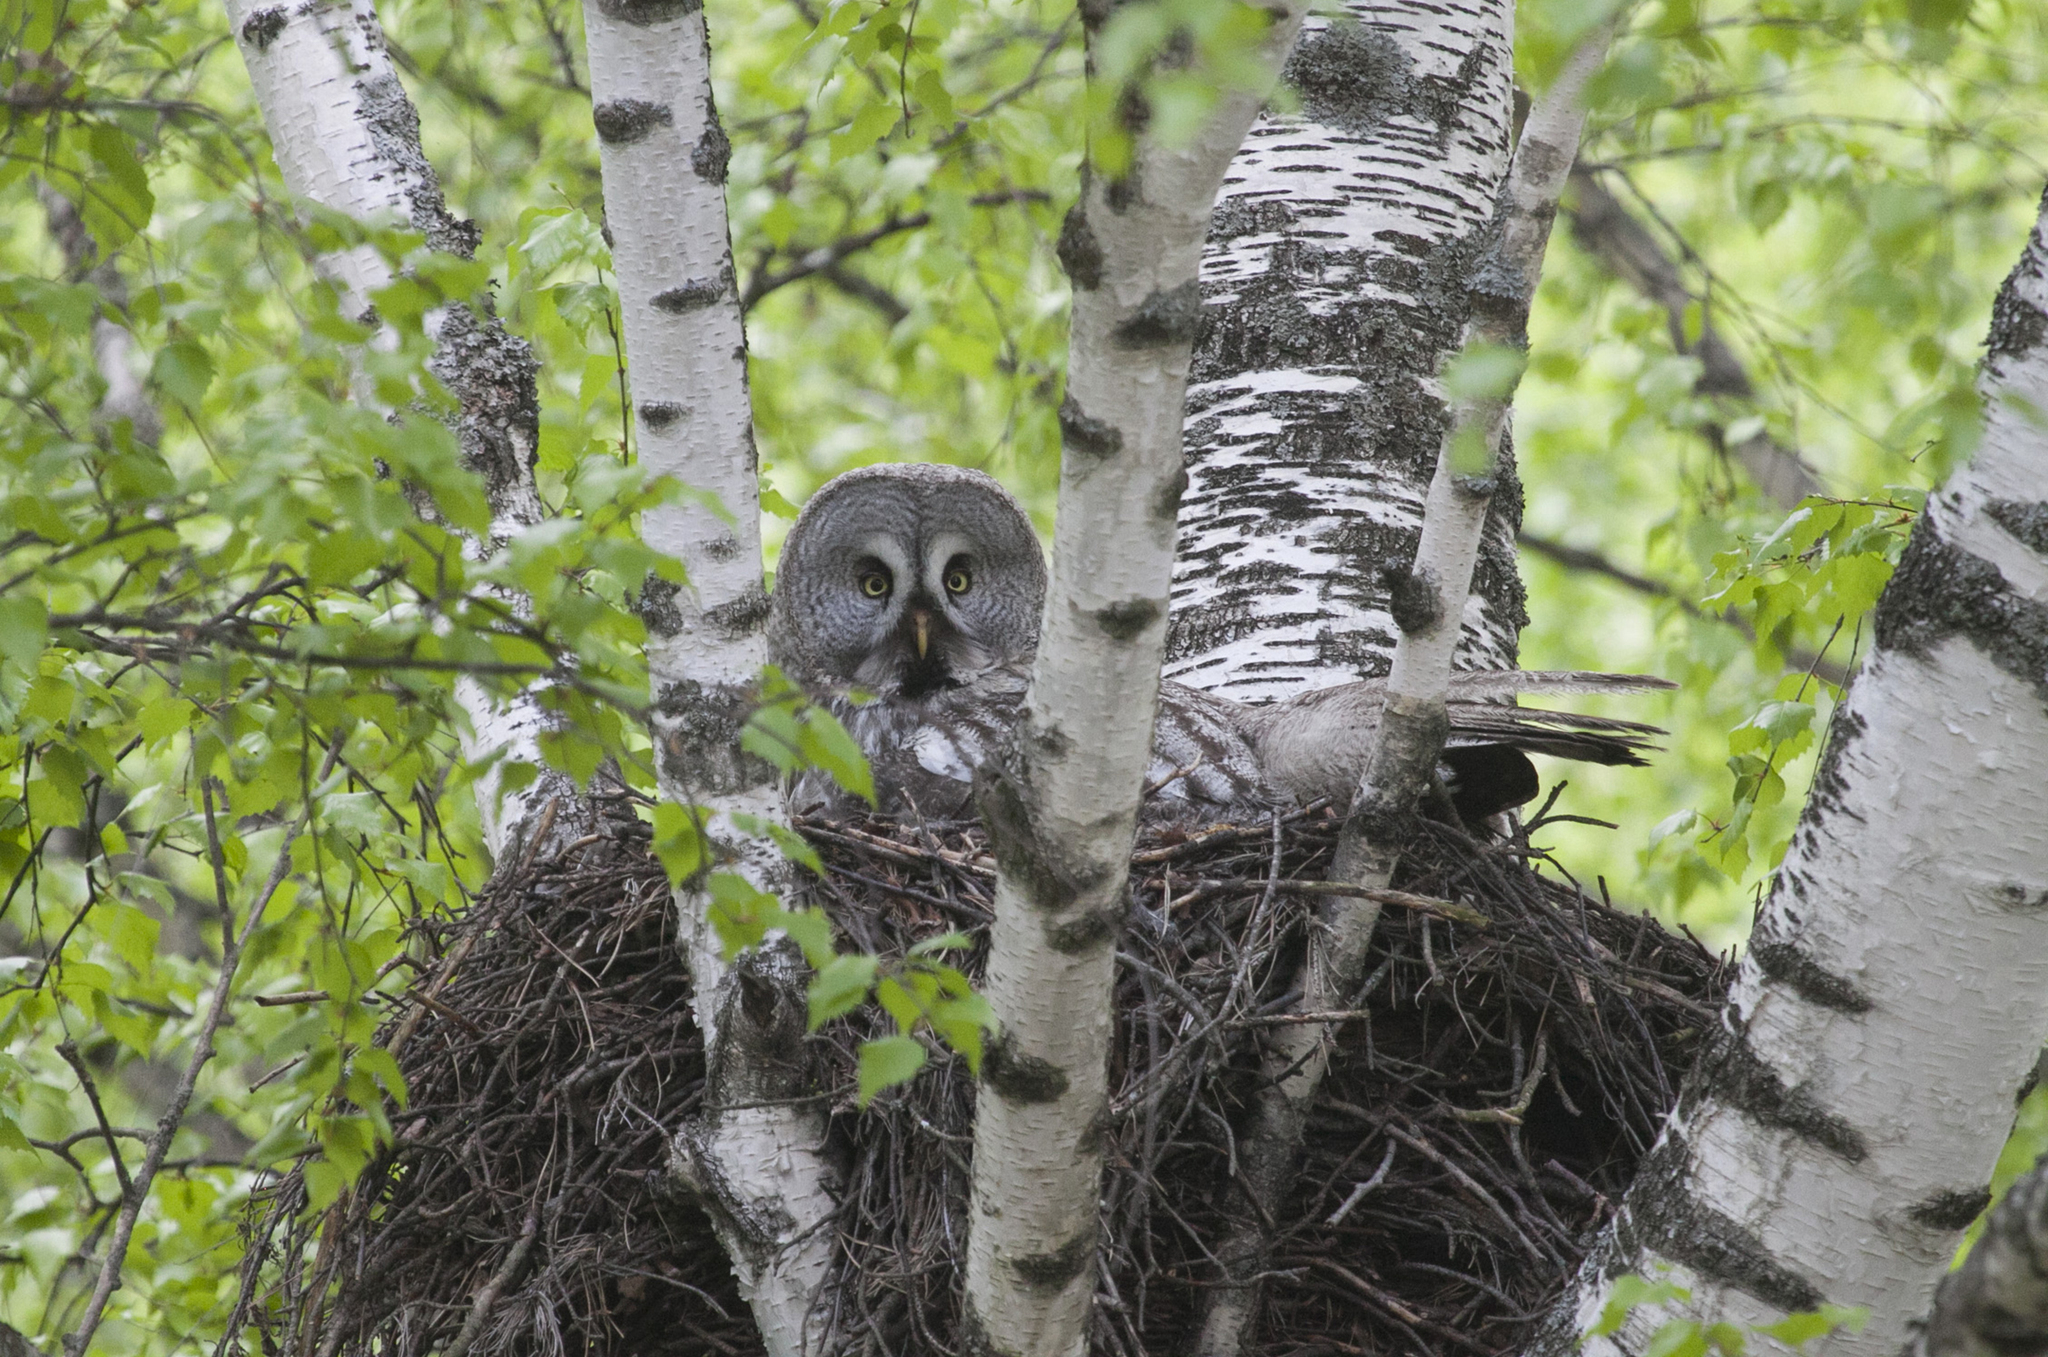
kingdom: Animalia
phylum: Chordata
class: Aves
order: Strigiformes
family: Strigidae
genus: Strix
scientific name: Strix nebulosa
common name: Great grey owl
